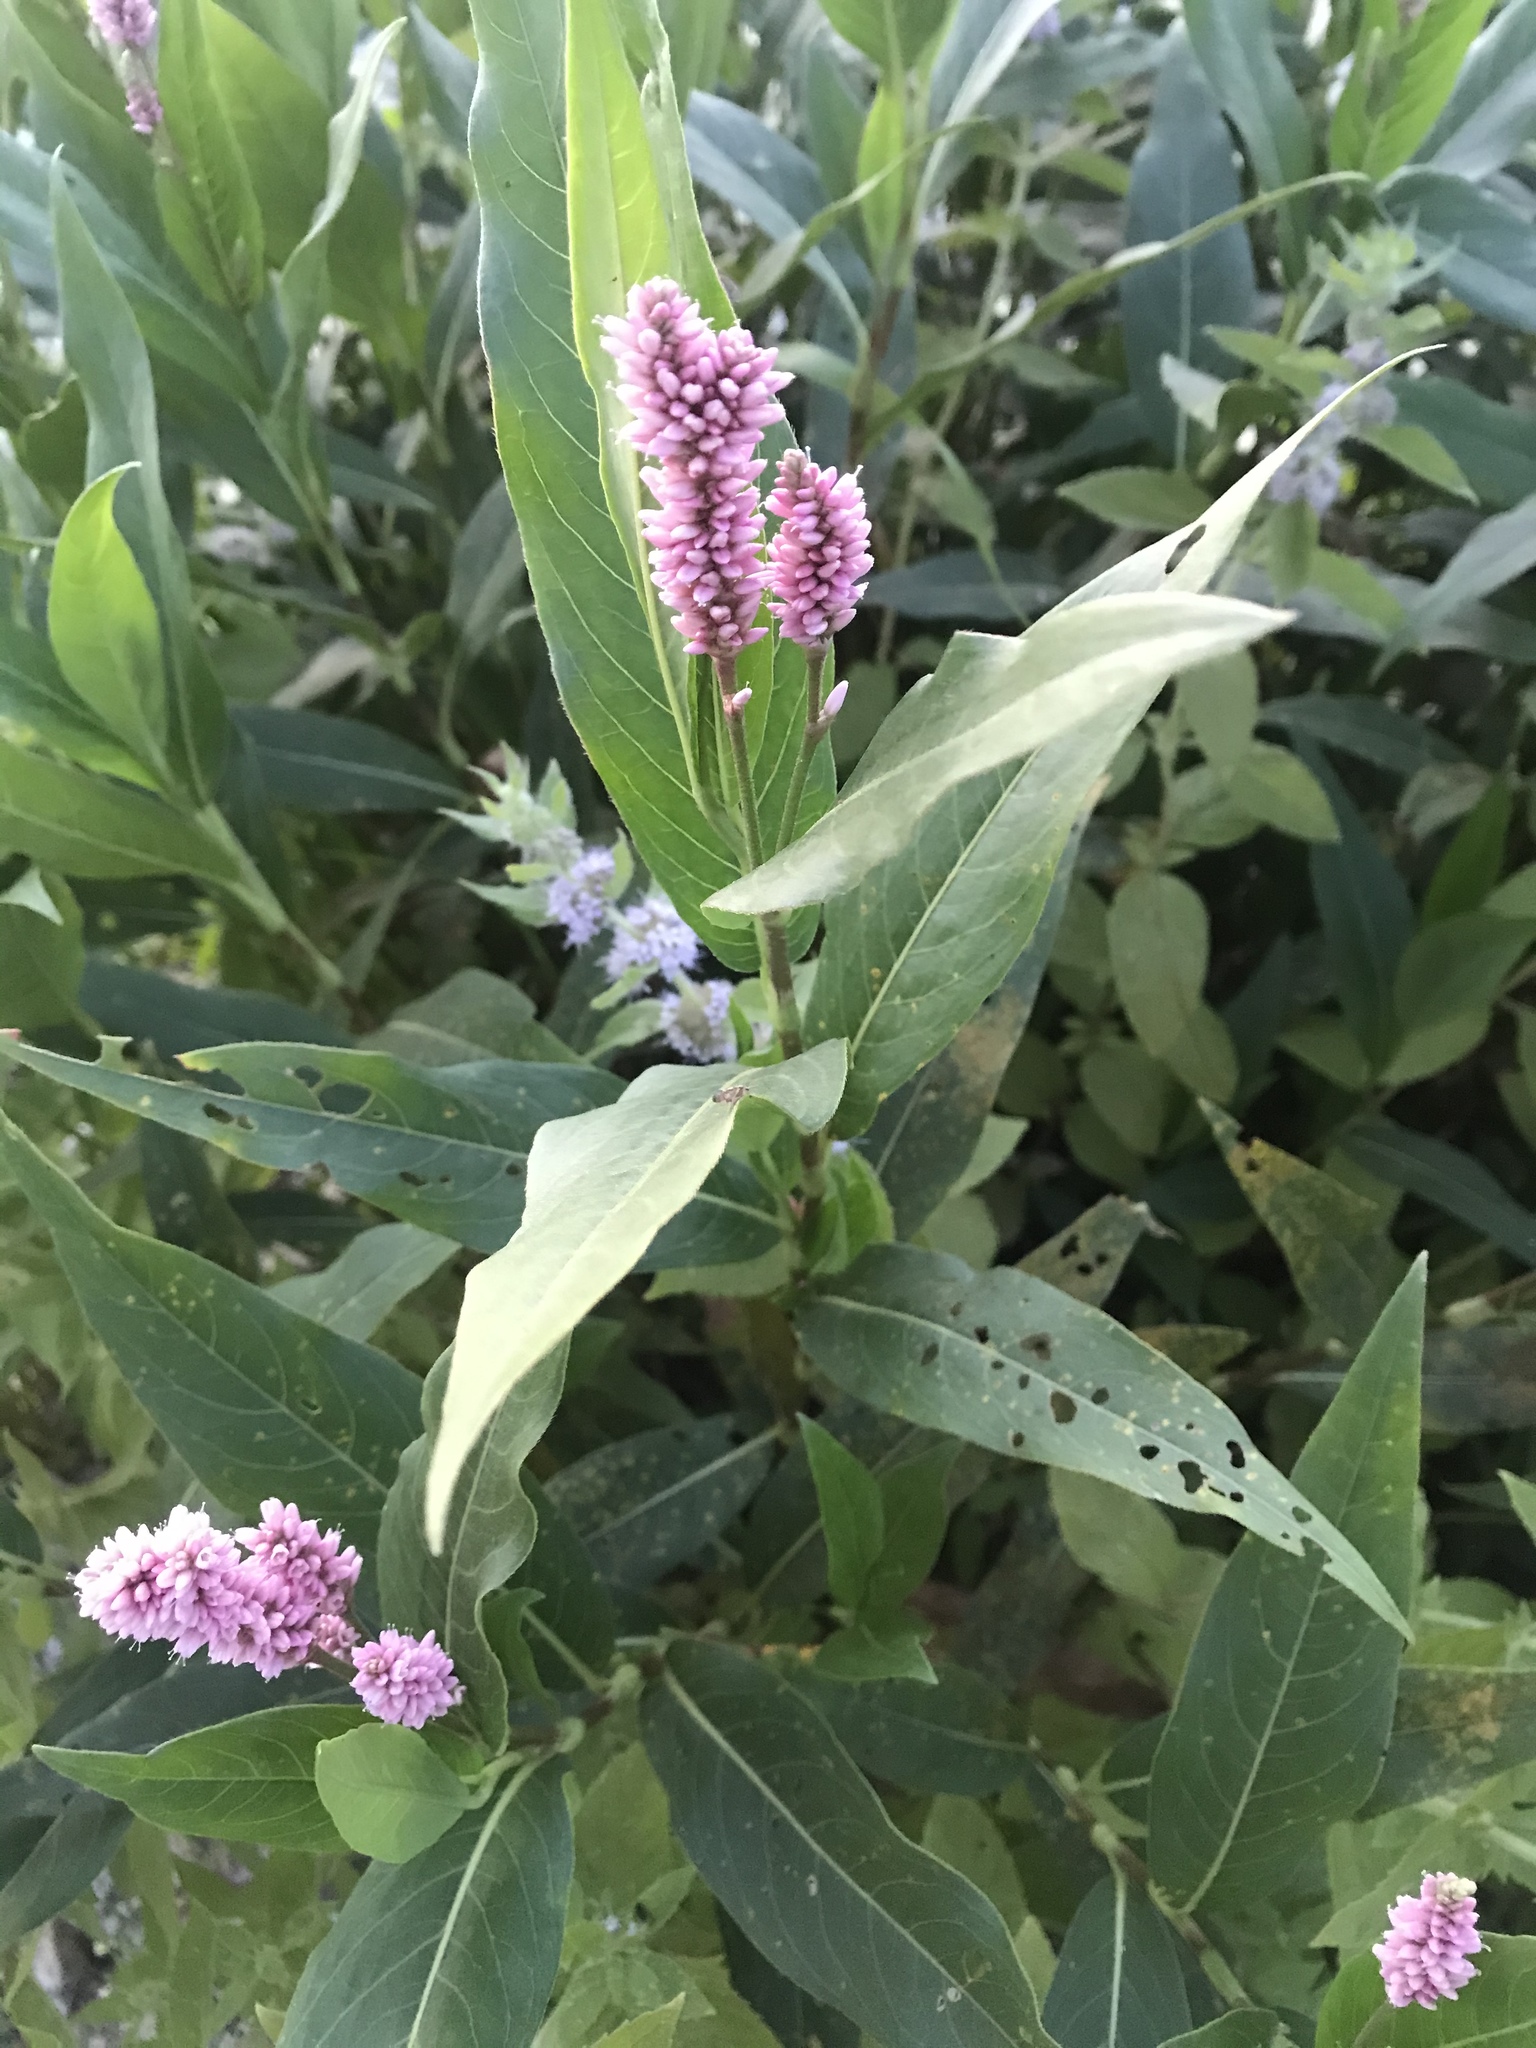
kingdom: Plantae
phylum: Tracheophyta
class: Magnoliopsida
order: Caryophyllales
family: Polygonaceae
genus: Persicaria
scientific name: Persicaria amphibia
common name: Amphibious bistort
